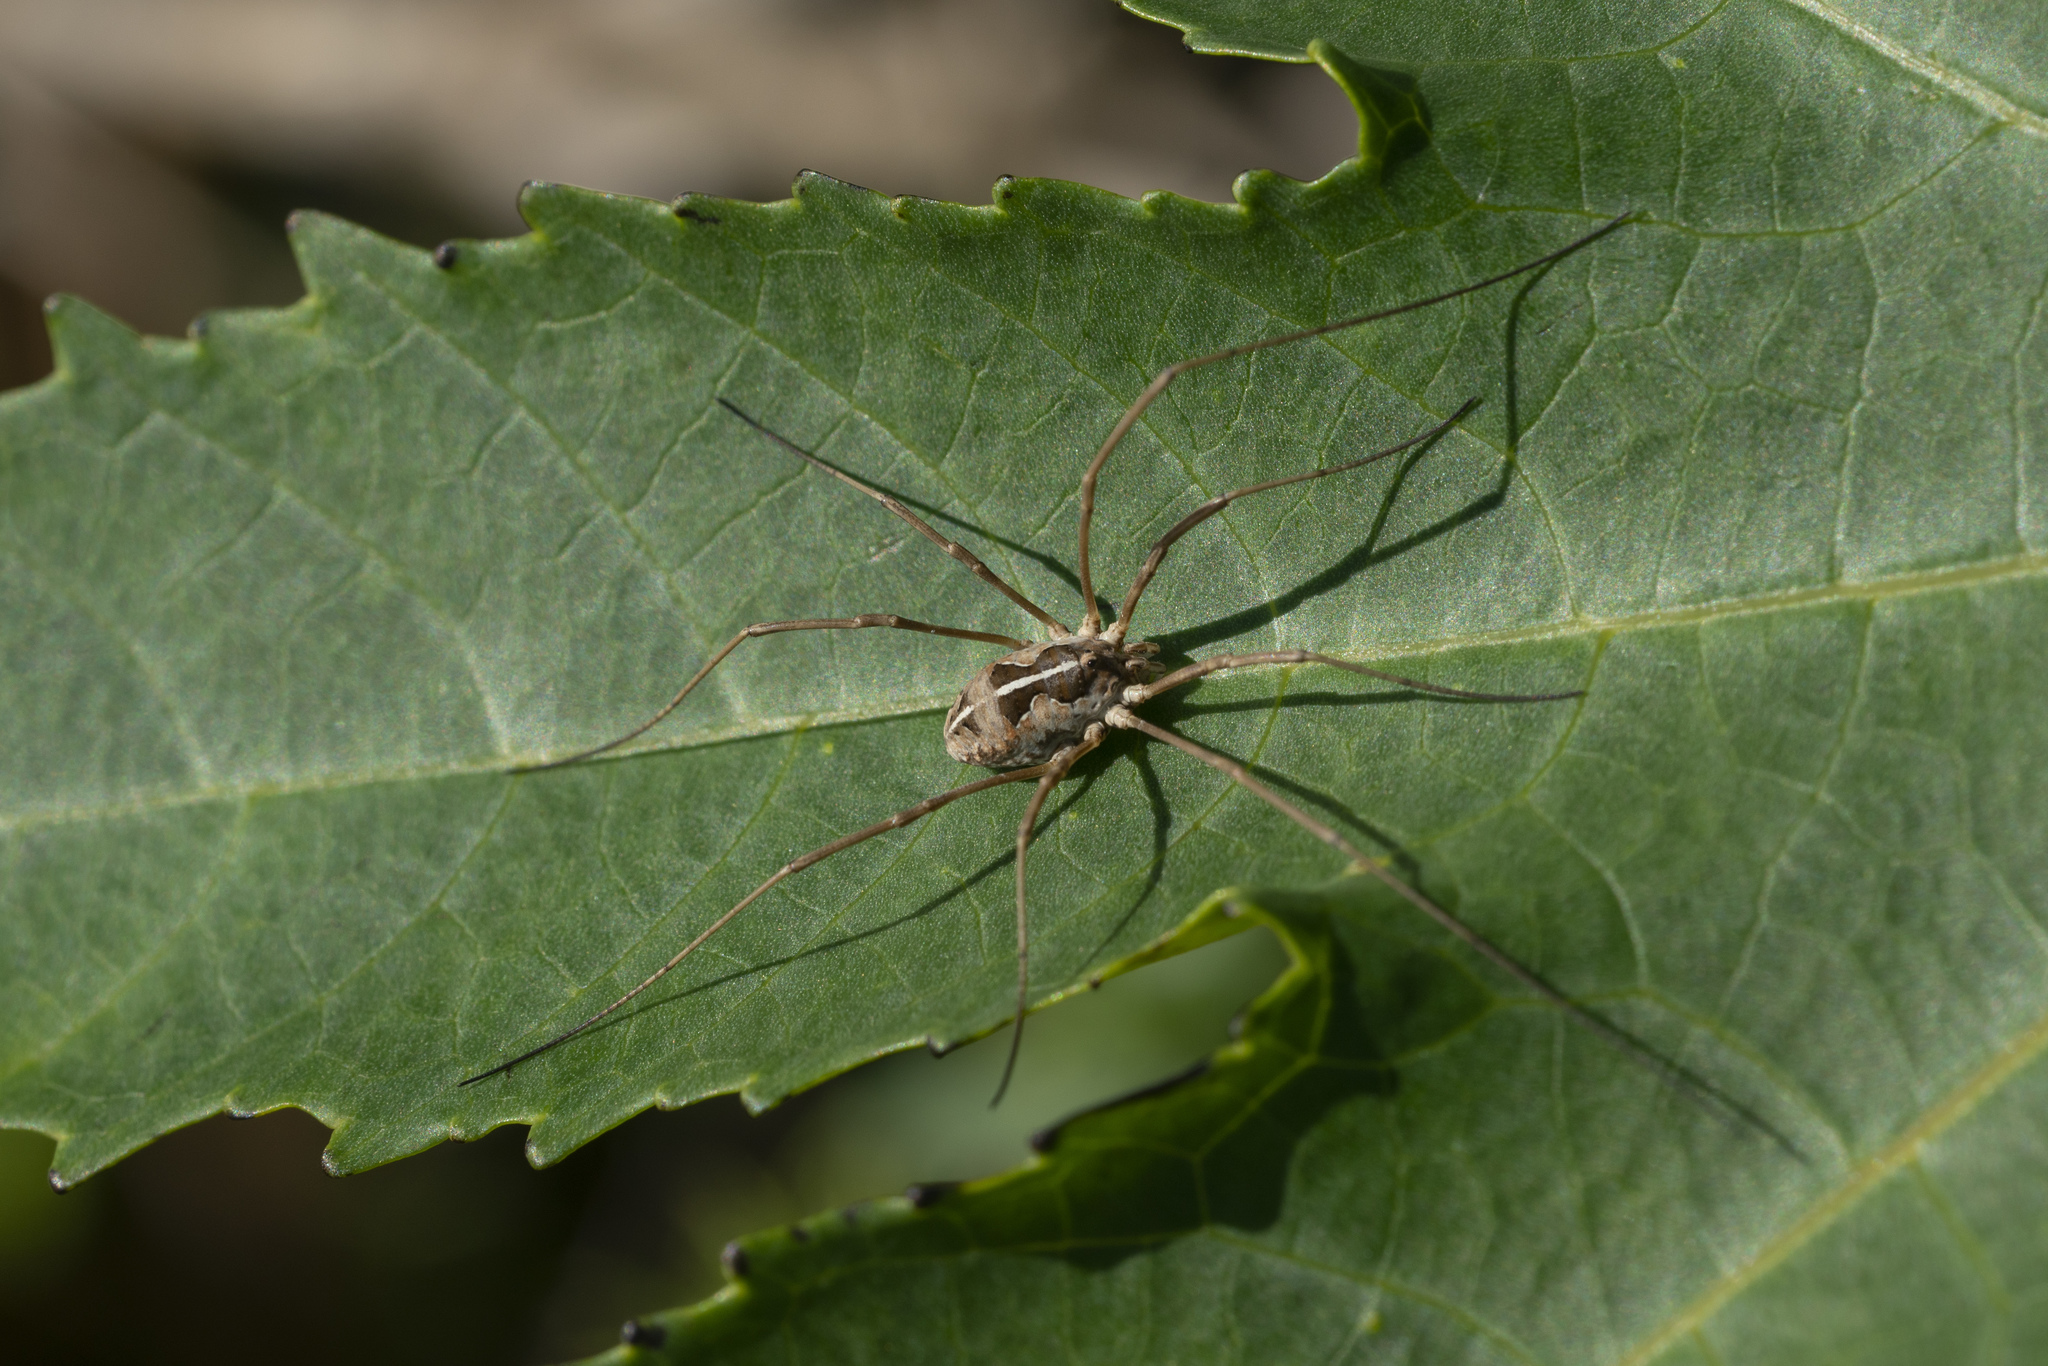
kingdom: Animalia
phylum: Arthropoda
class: Arachnida
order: Opiliones
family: Phalangiidae
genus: Metaphalangium
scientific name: Metaphalangium cirtanum
